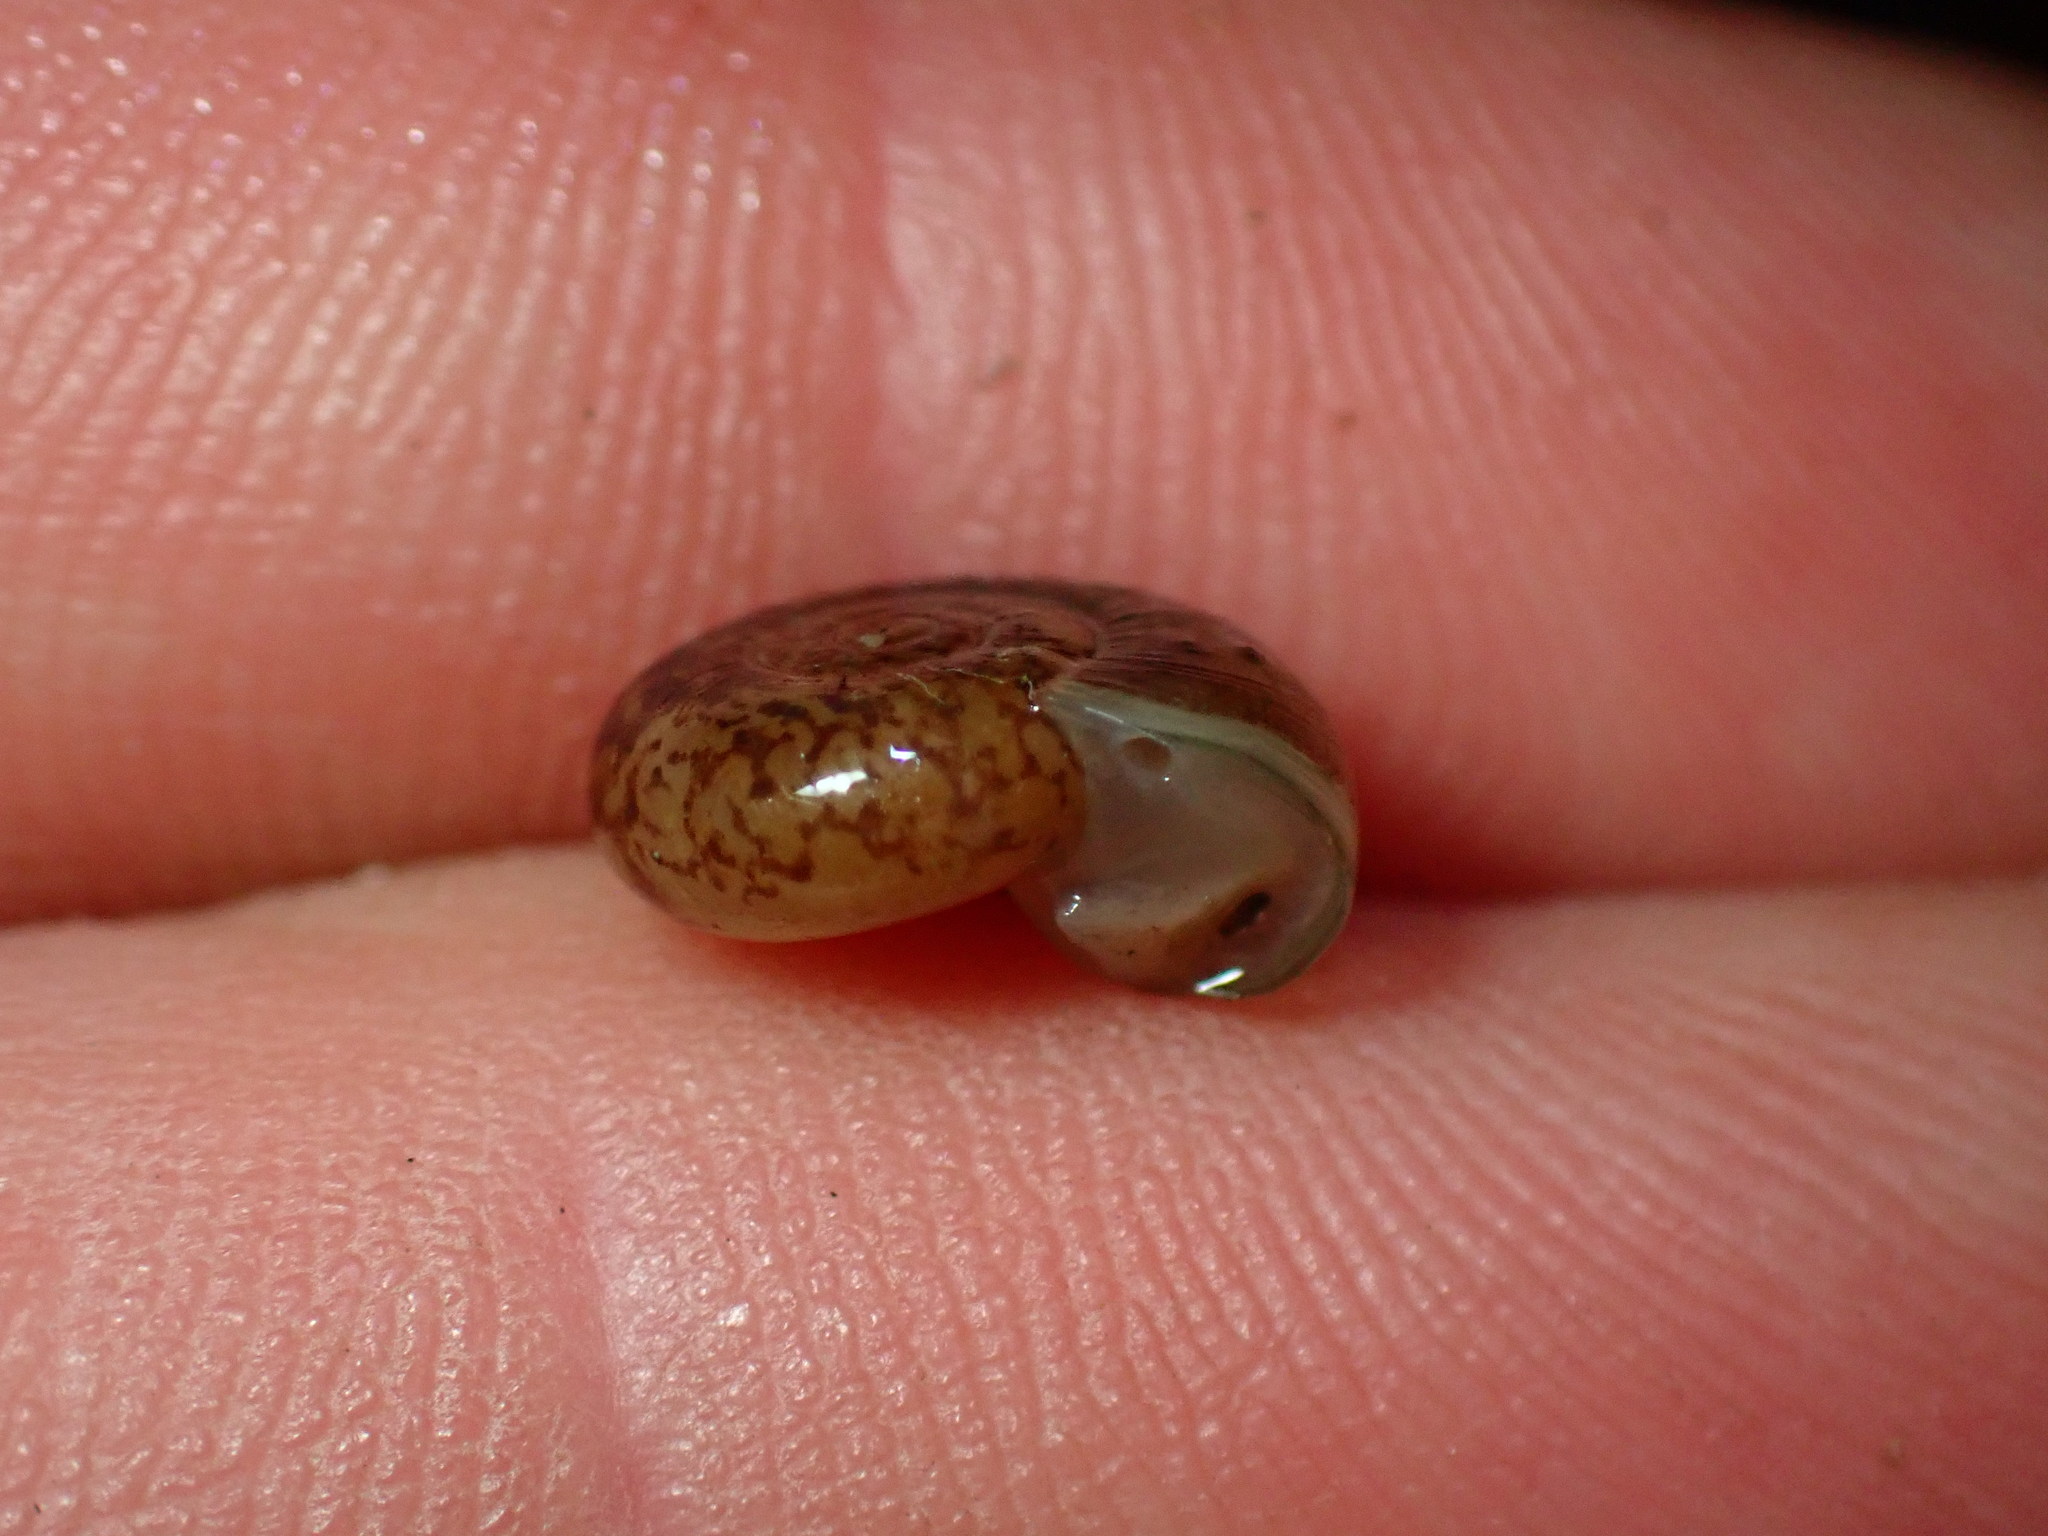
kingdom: Animalia
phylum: Mollusca
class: Gastropoda
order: Stylommatophora
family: Haplotrematidae
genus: Haplotrema
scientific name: Haplotrema minimum
